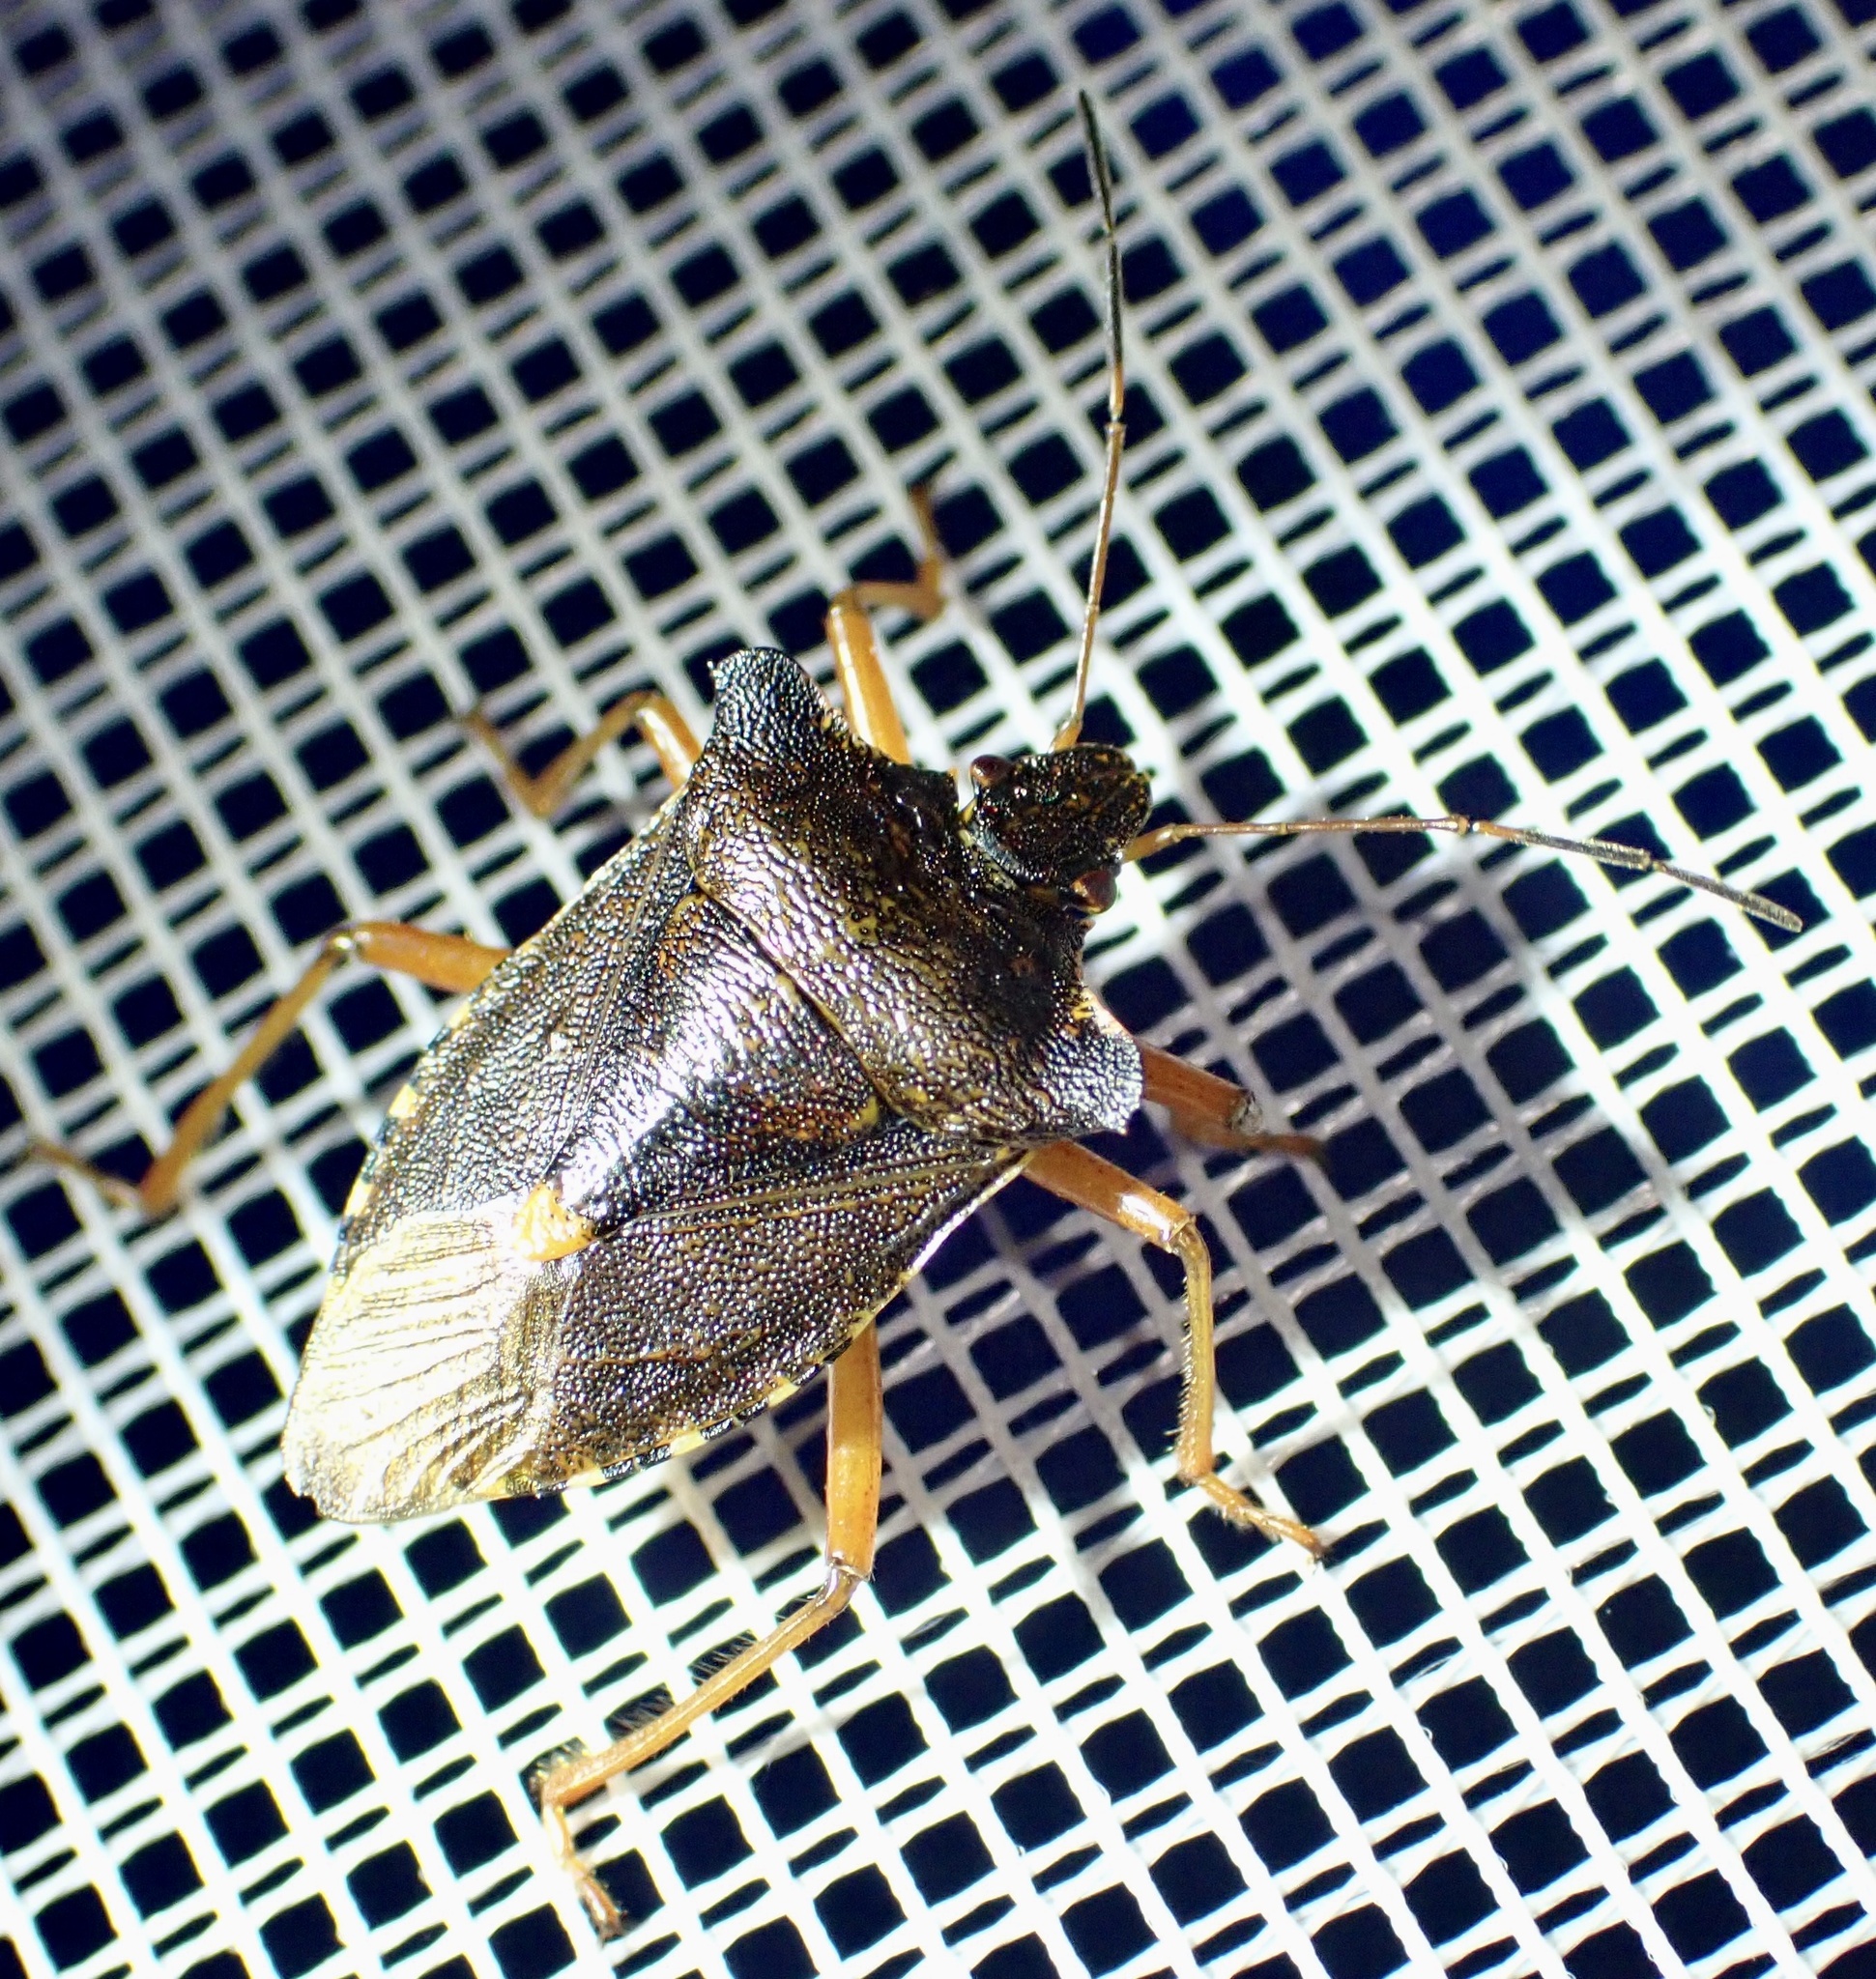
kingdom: Animalia
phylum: Arthropoda
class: Insecta
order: Hemiptera
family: Pentatomidae
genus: Pentatoma
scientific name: Pentatoma rufipes
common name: Forest bug
